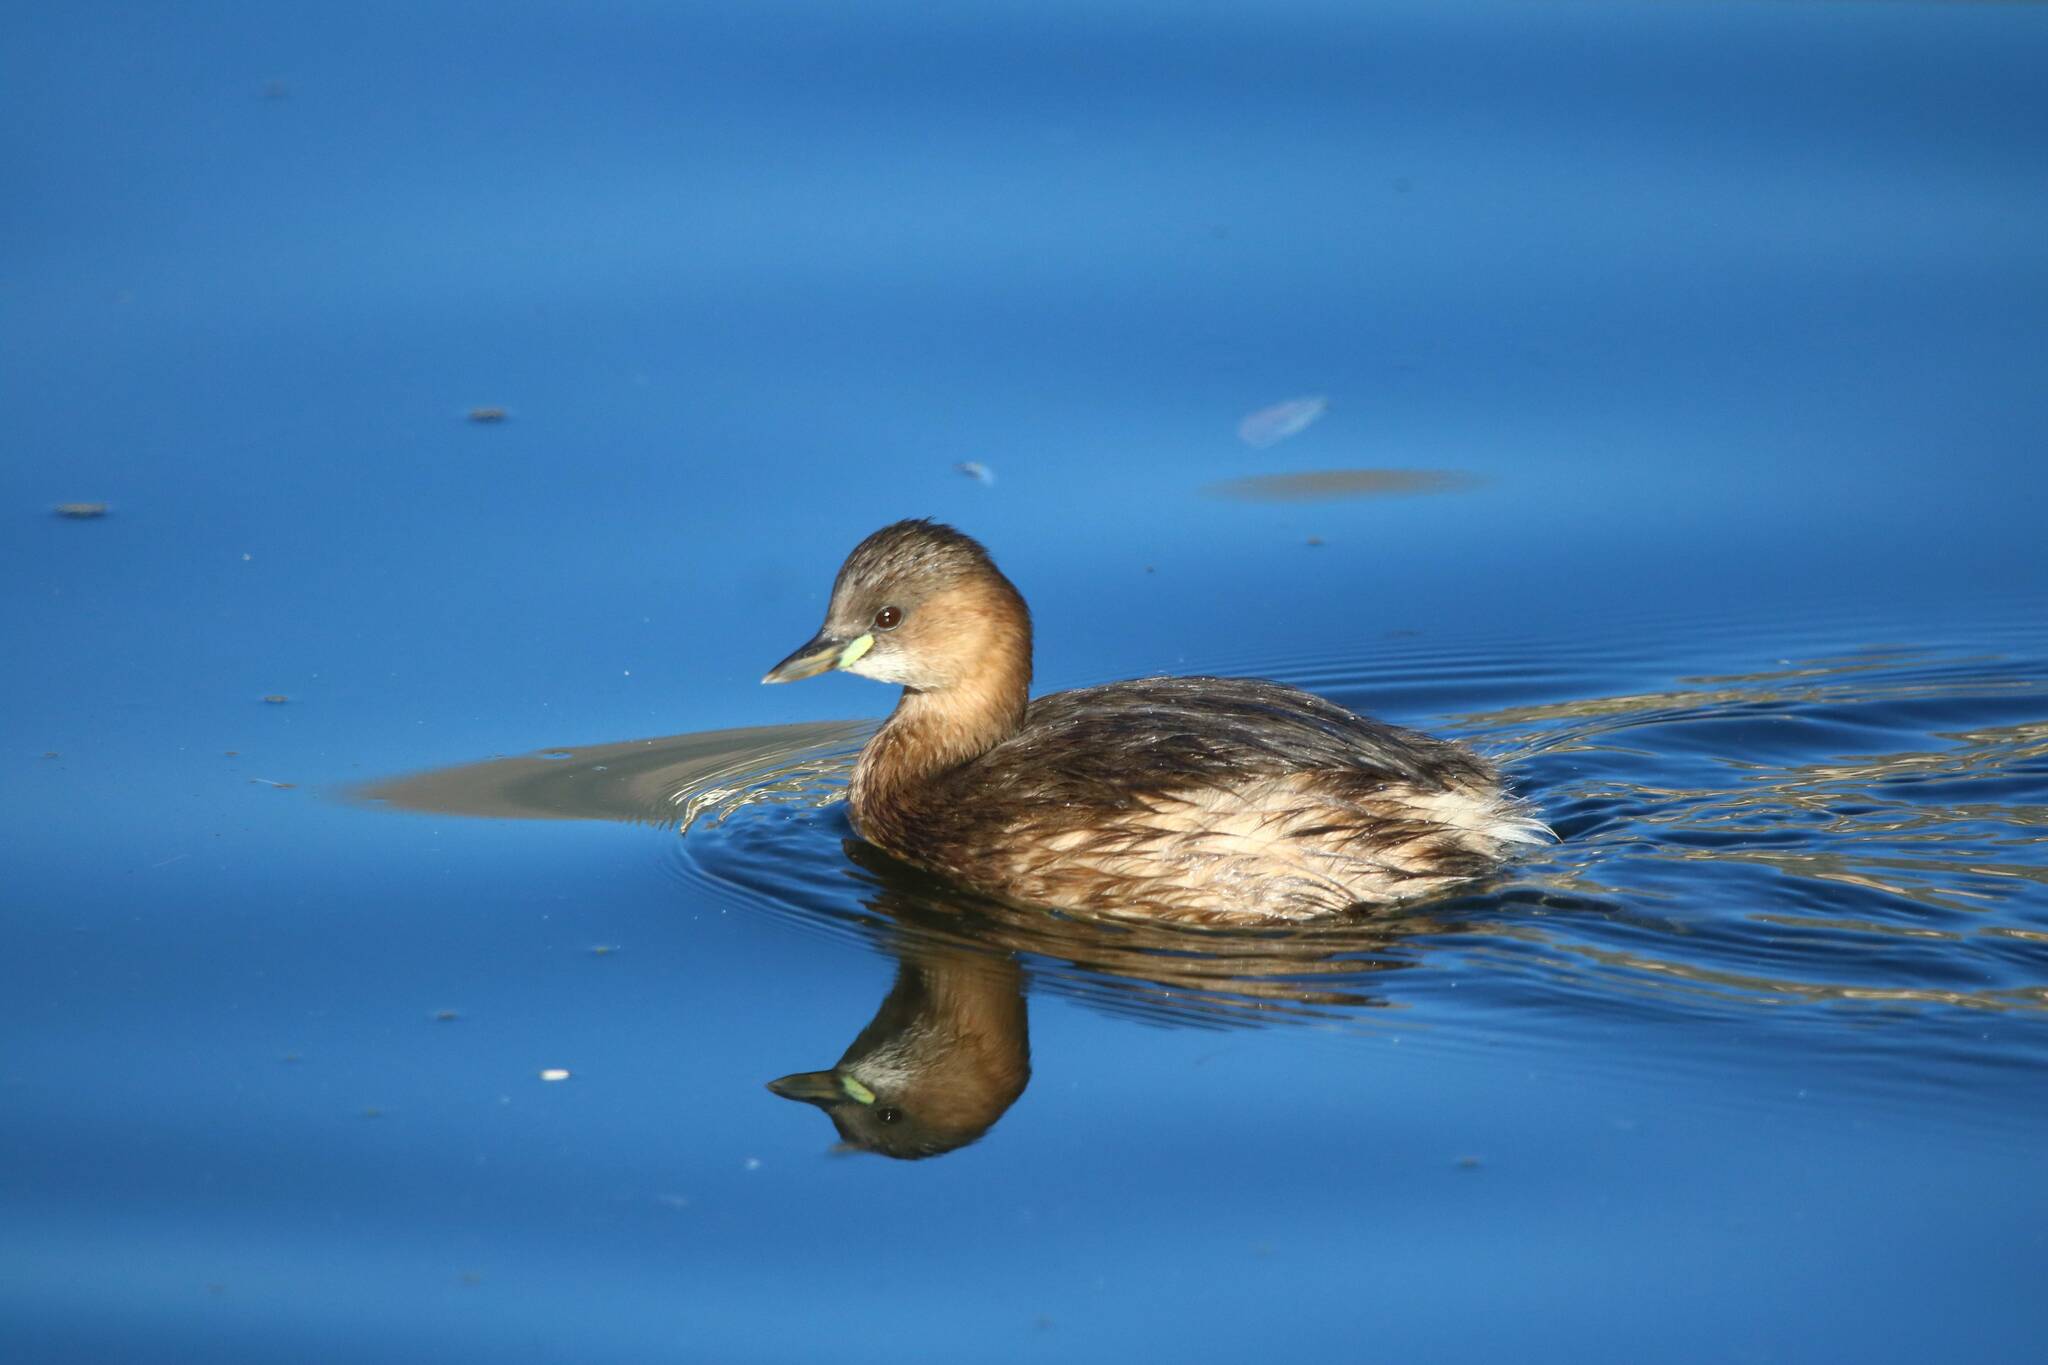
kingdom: Animalia
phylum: Chordata
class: Aves
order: Podicipediformes
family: Podicipedidae
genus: Tachybaptus
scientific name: Tachybaptus ruficollis
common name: Little grebe
